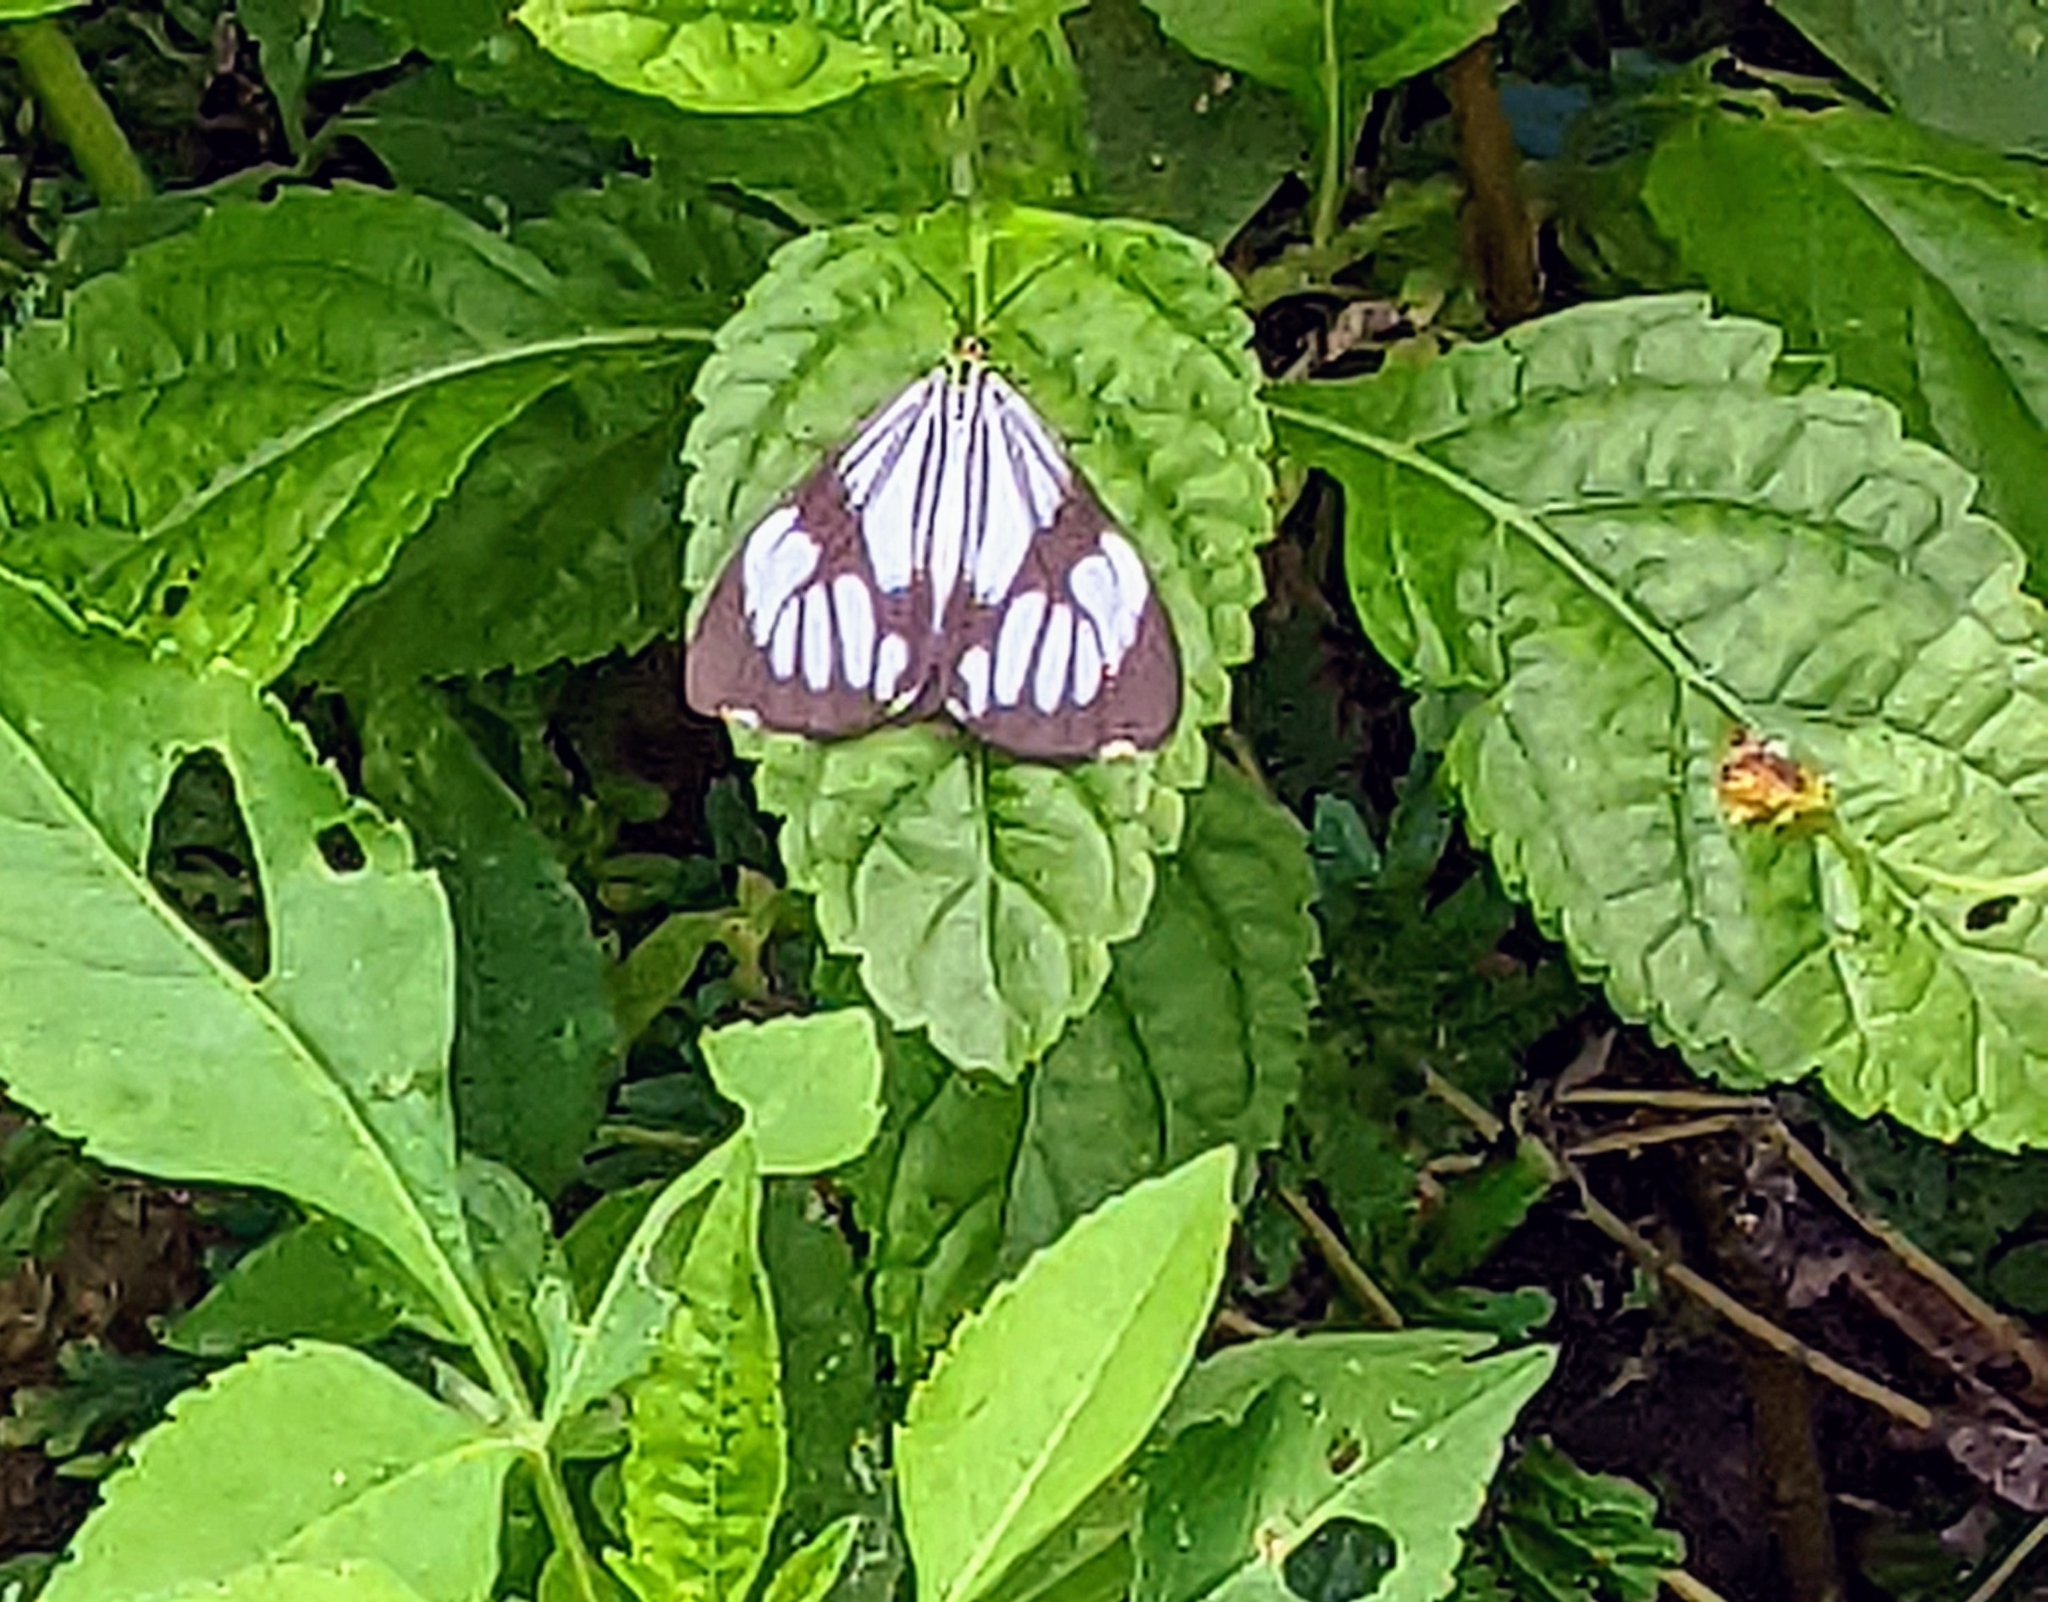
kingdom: Animalia
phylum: Arthropoda
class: Insecta
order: Lepidoptera
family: Erebidae
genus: Nyctemera
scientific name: Nyctemera coleta
